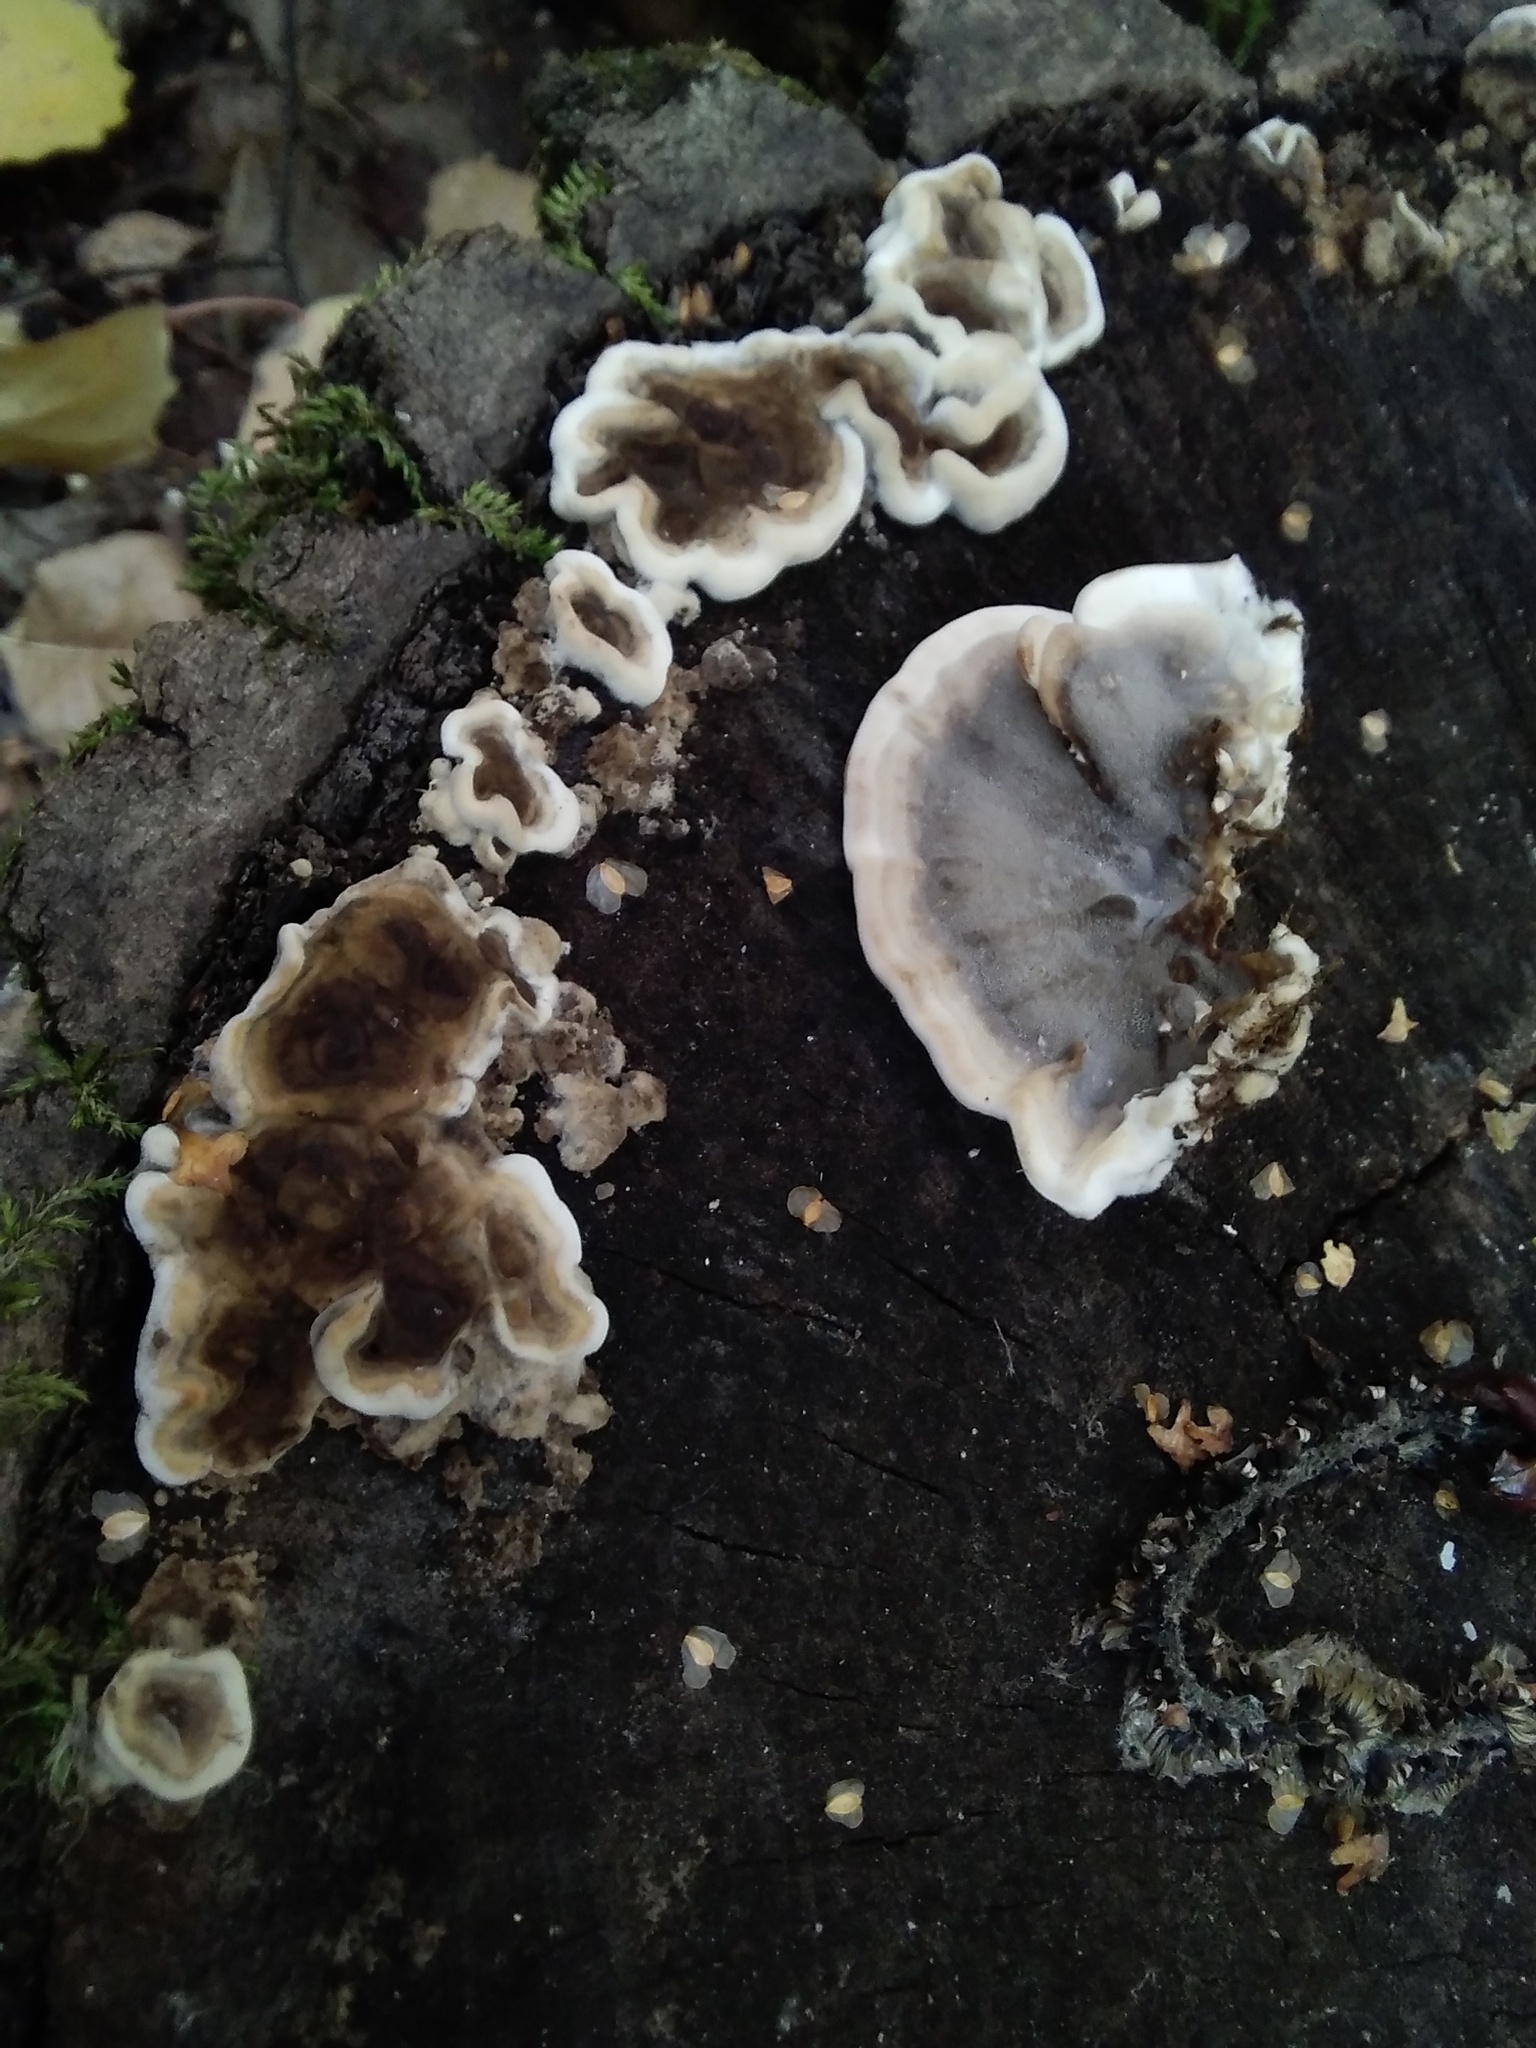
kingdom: Fungi
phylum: Basidiomycota
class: Agaricomycetes
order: Polyporales
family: Phanerochaetaceae
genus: Bjerkandera
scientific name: Bjerkandera adusta
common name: Smoky bracket
